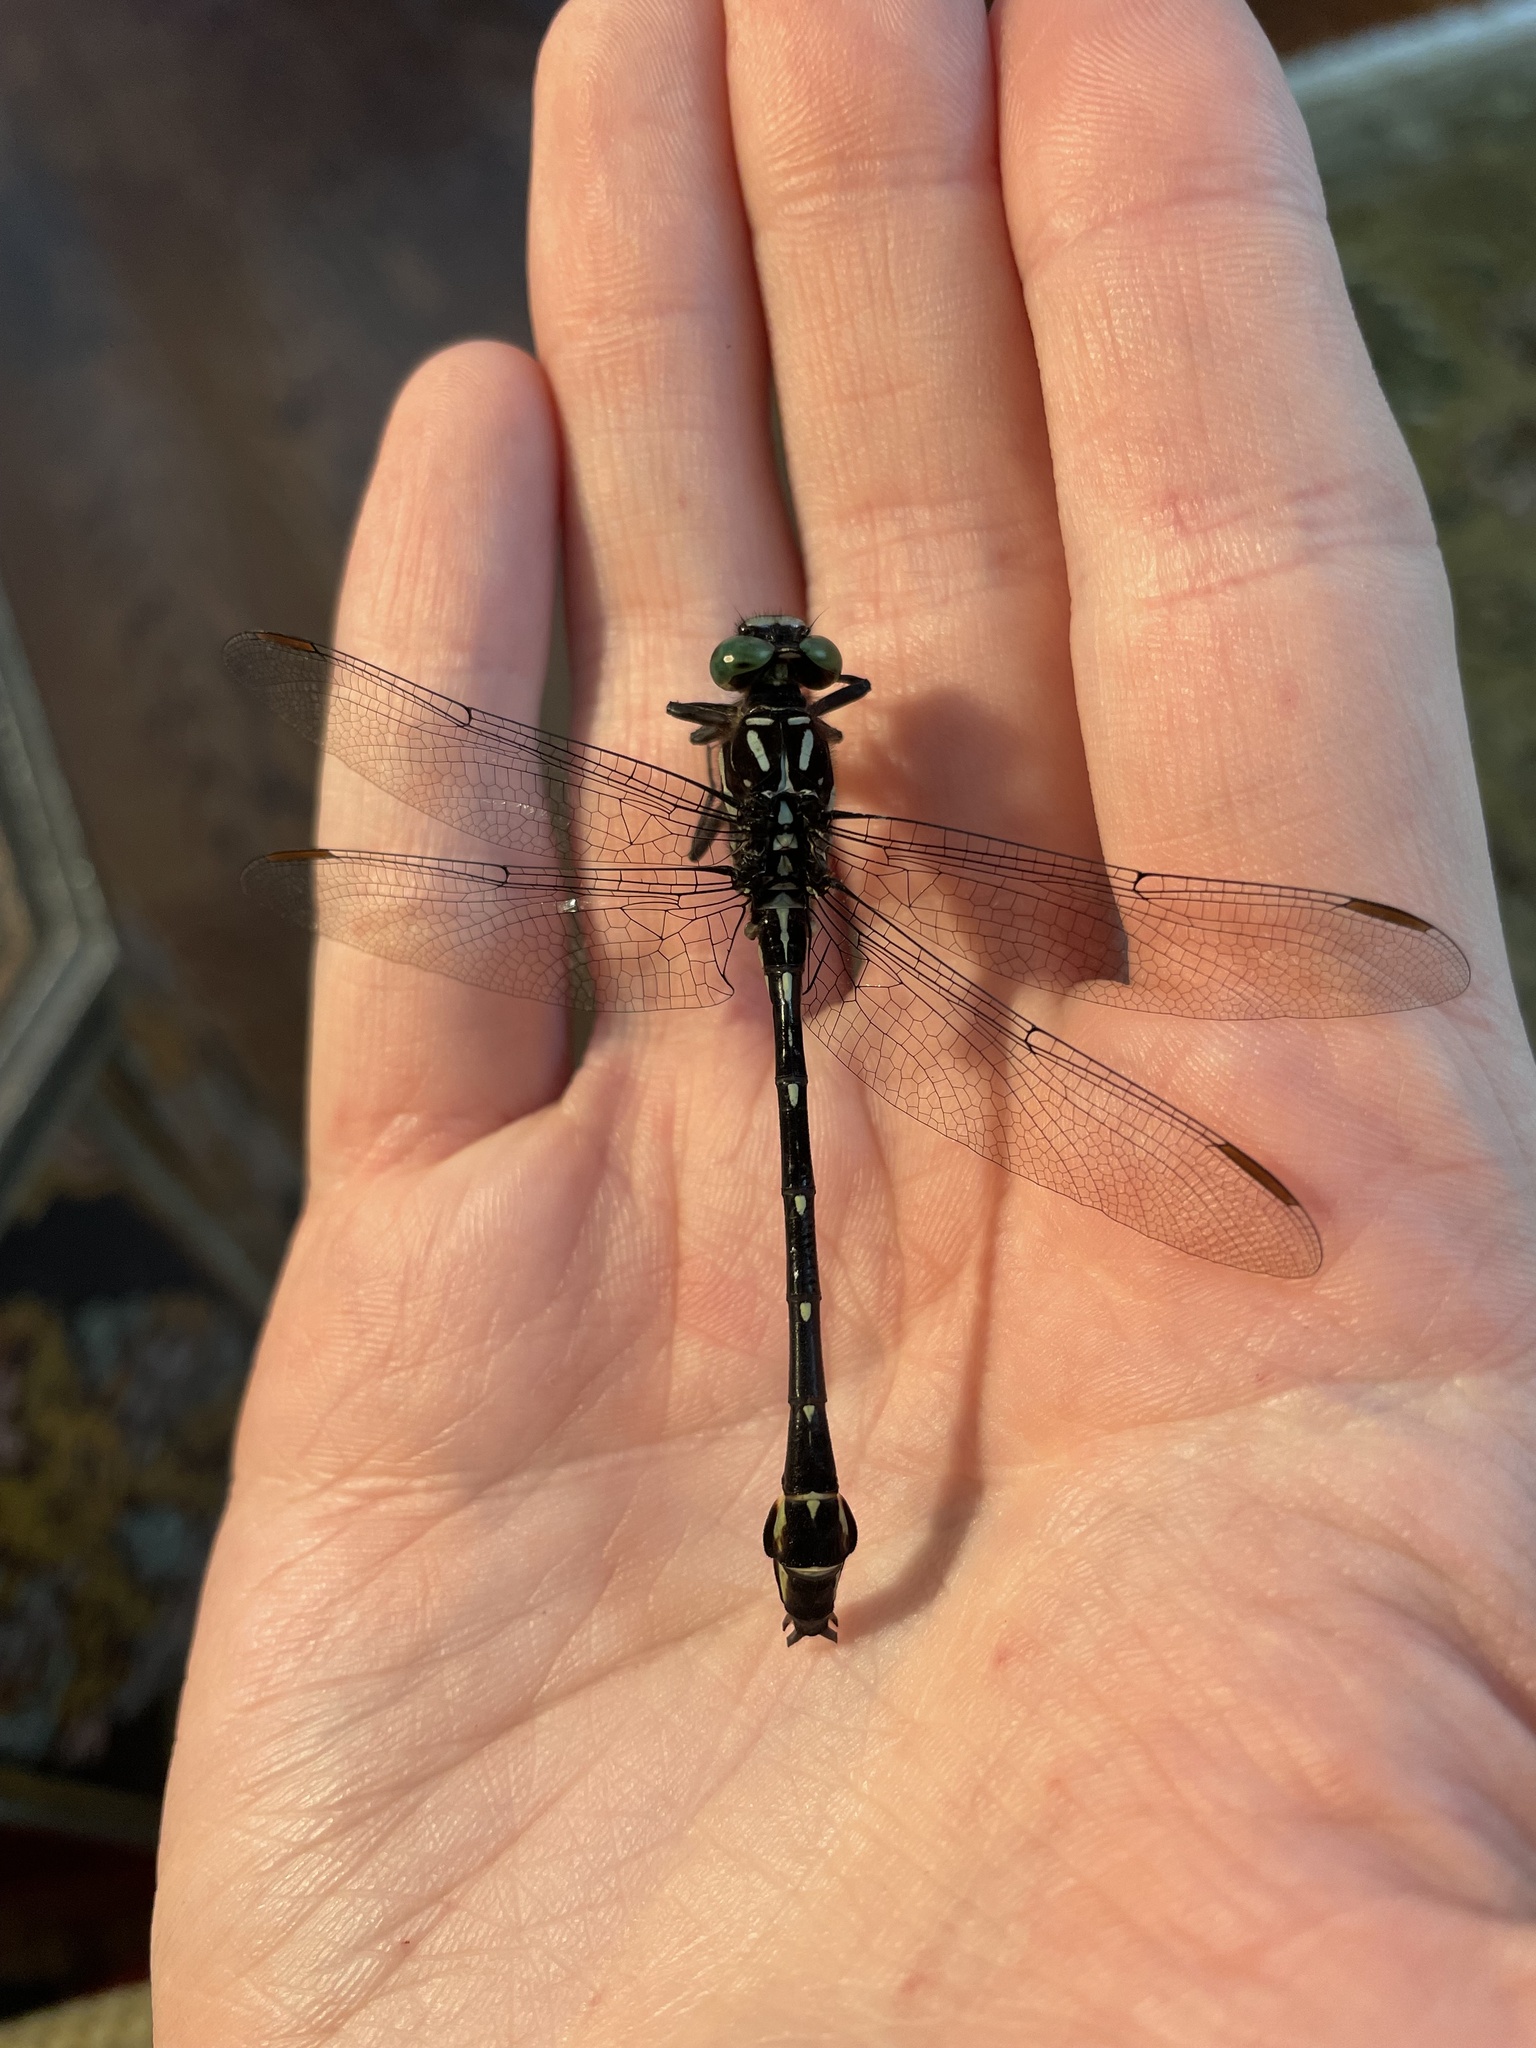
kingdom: Animalia
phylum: Arthropoda
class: Insecta
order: Odonata
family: Gomphidae
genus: Stylurus
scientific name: Stylurus spiniceps
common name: Arrow clubtail
